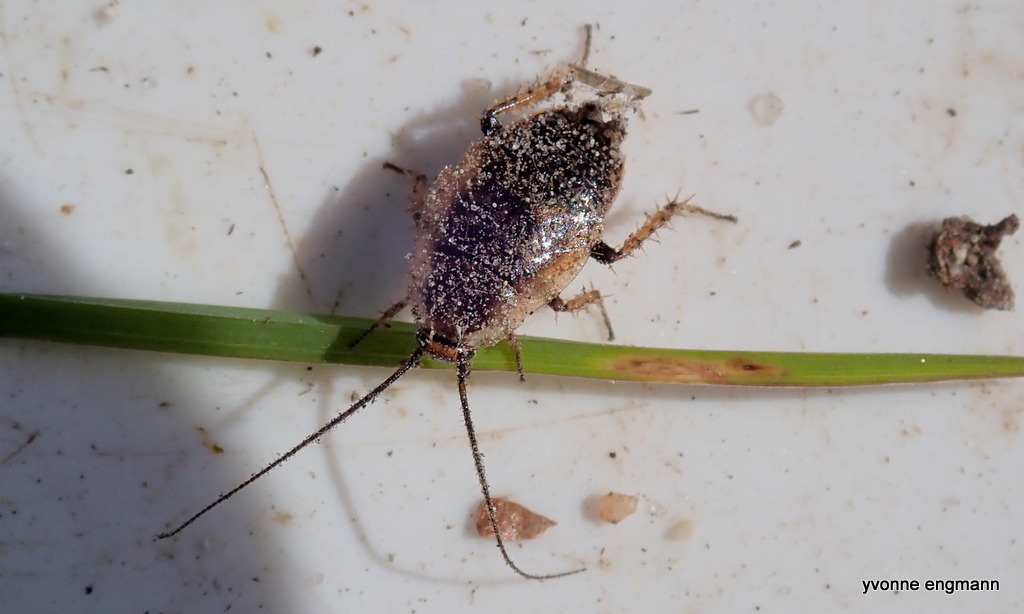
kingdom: Animalia
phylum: Arthropoda
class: Insecta
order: Blattodea
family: Ectobiidae
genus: Ectobius
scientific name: Ectobius sylvestris
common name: Forest cockroach
